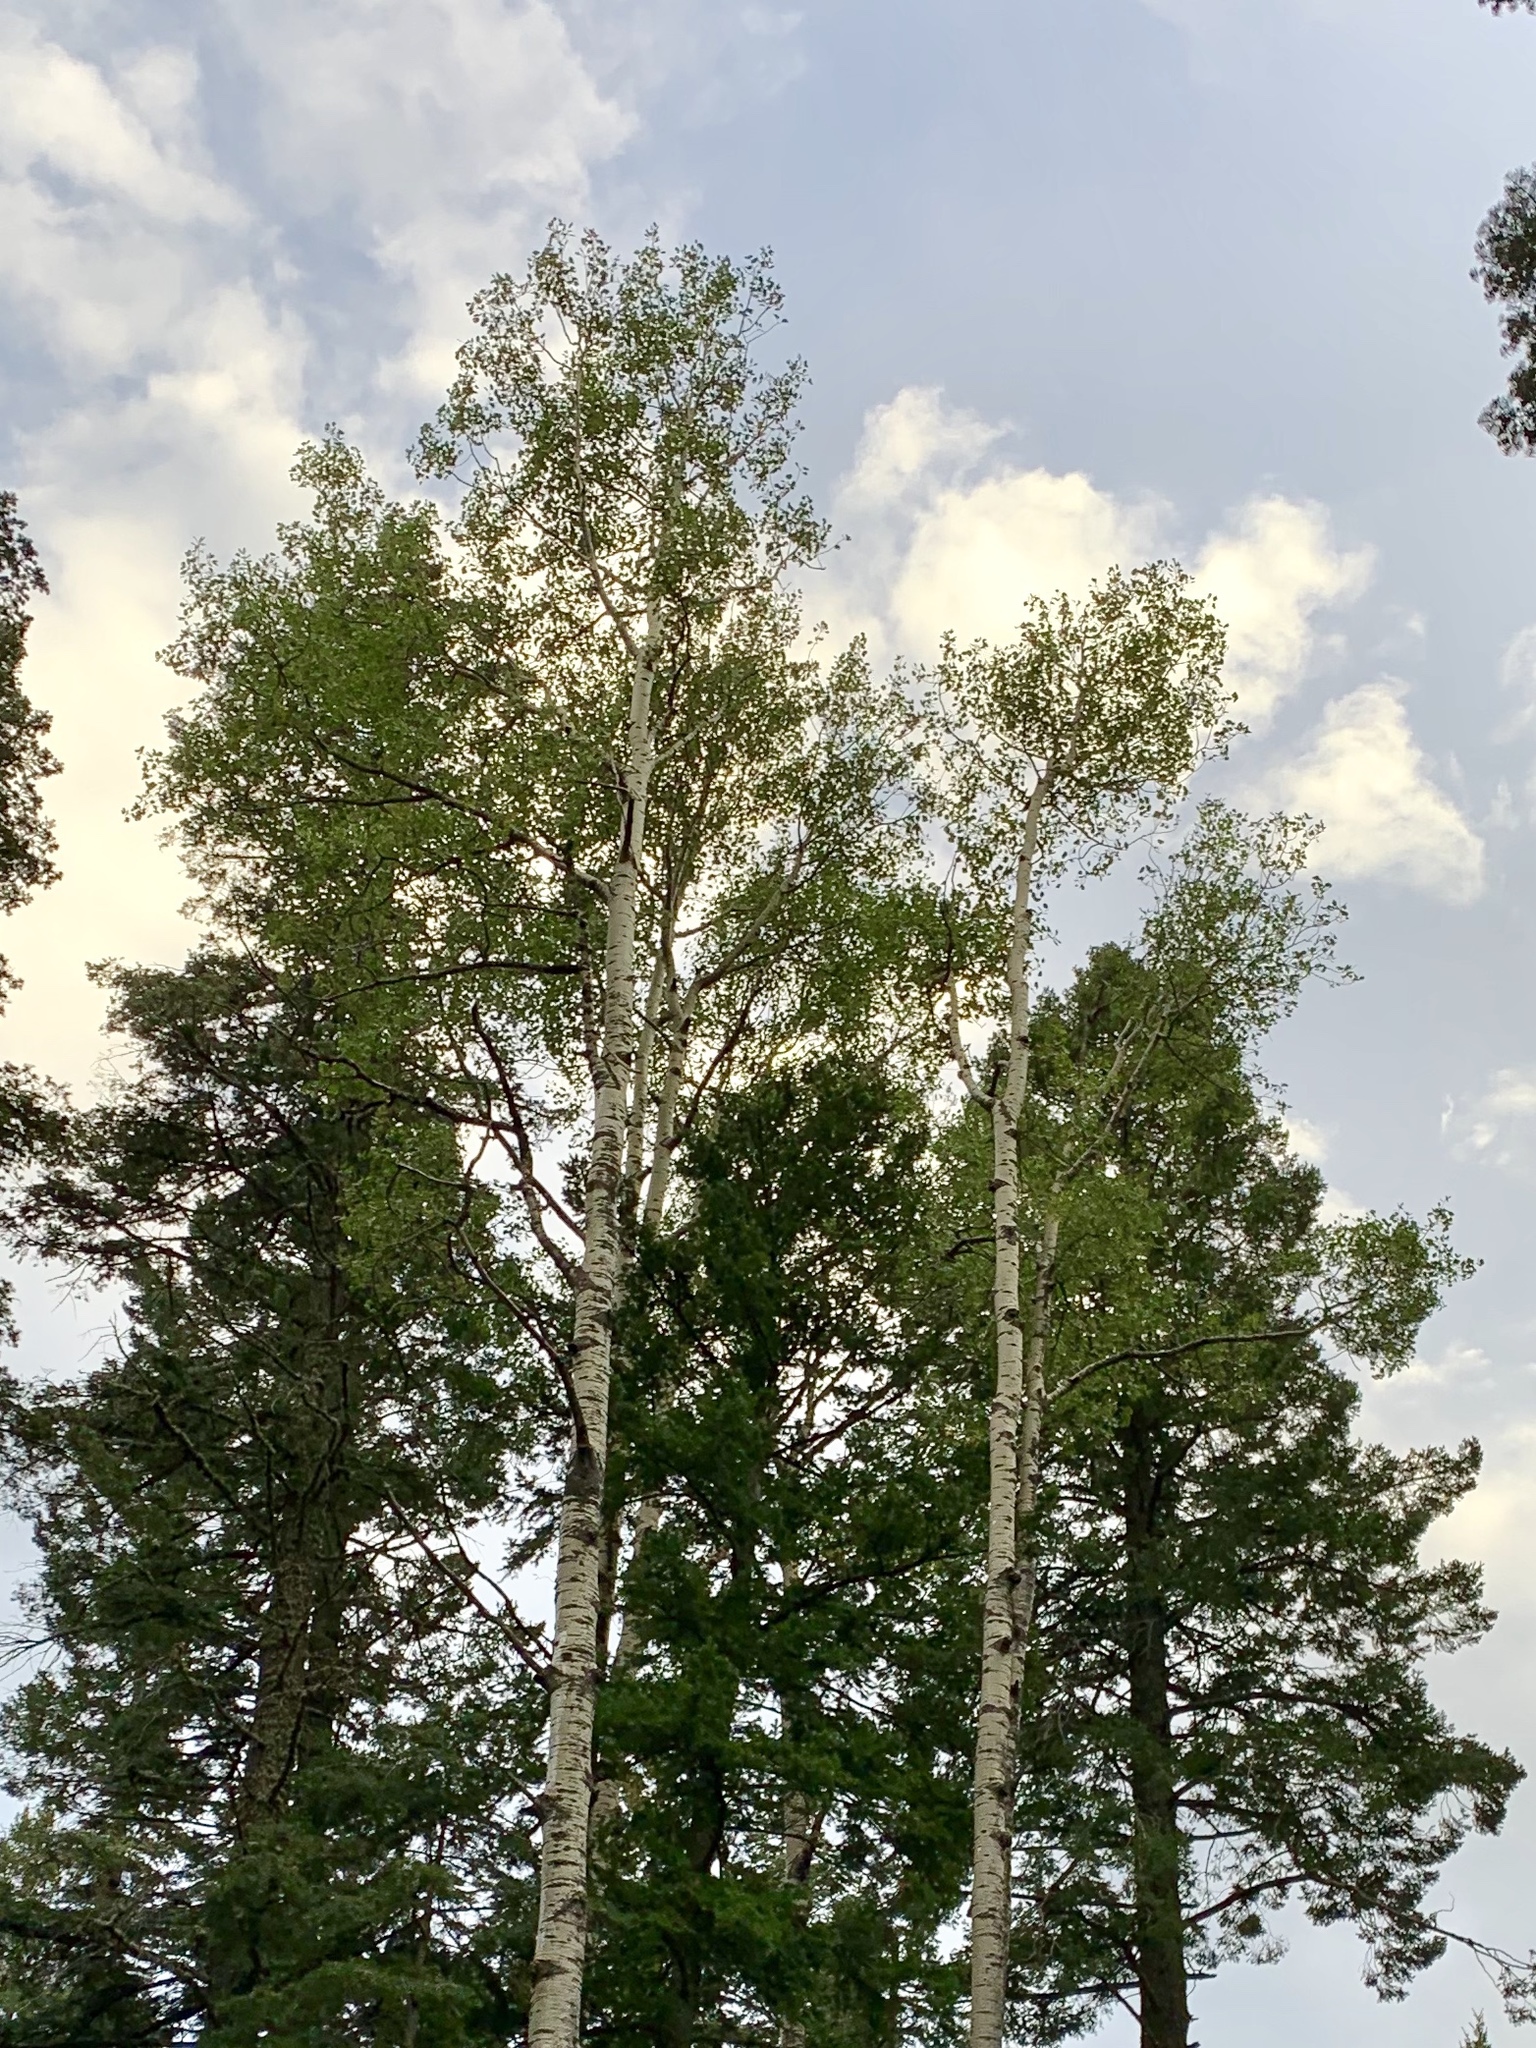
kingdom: Plantae
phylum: Tracheophyta
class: Magnoliopsida
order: Malpighiales
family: Salicaceae
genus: Populus
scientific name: Populus tremuloides
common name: Quaking aspen
